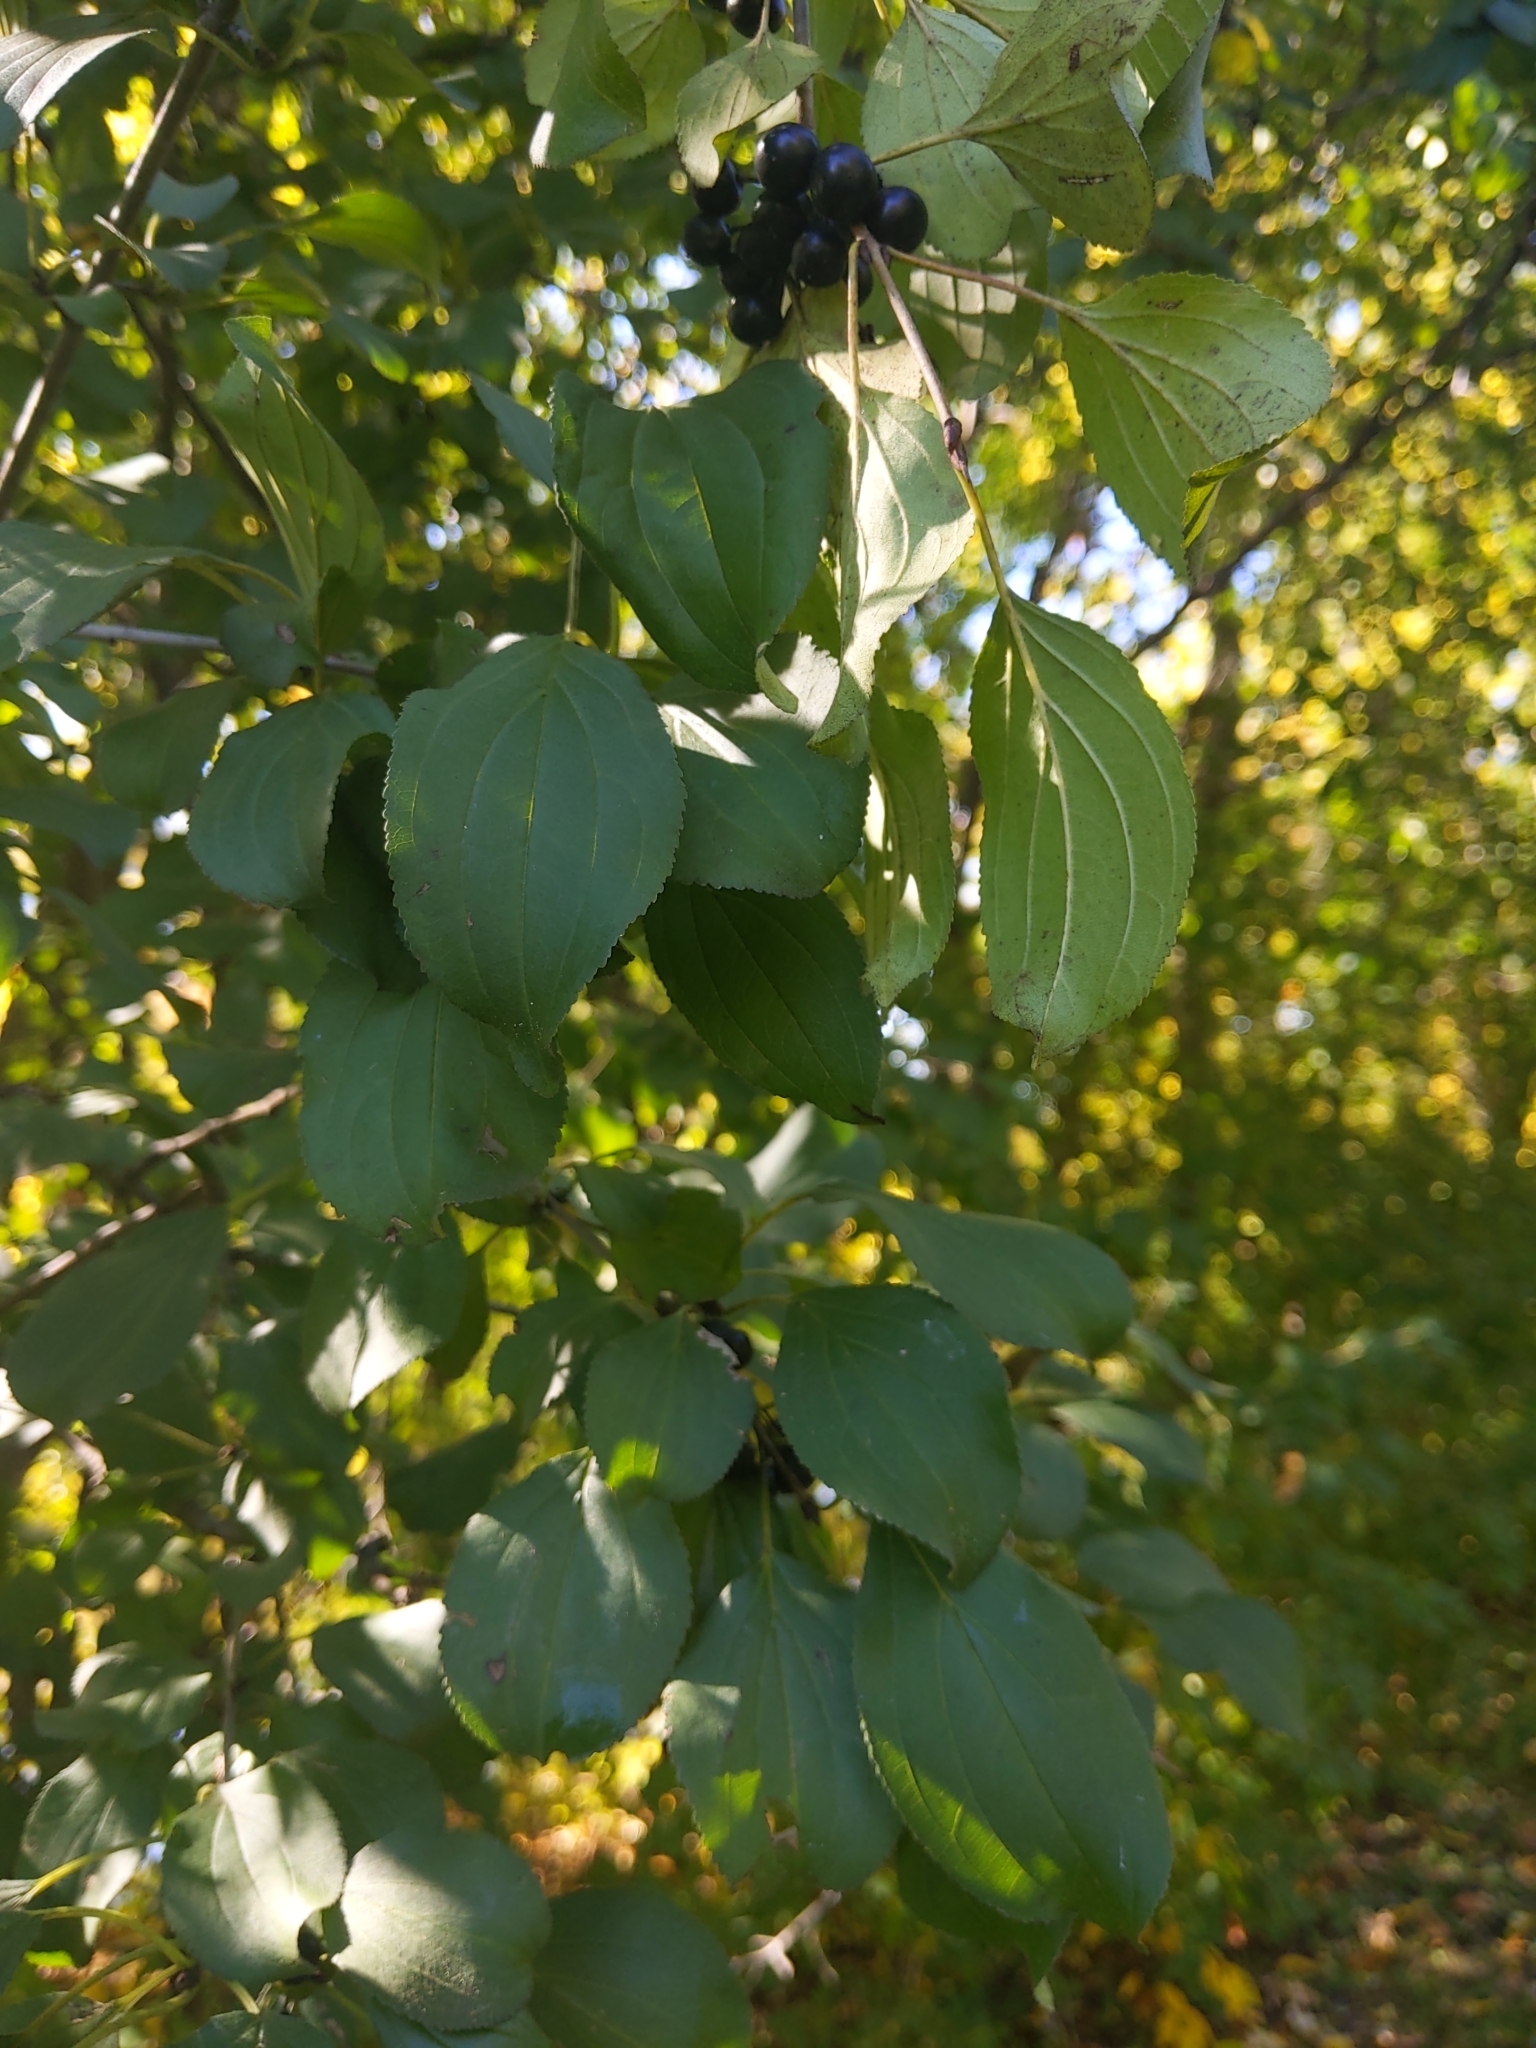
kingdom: Plantae
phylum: Tracheophyta
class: Magnoliopsida
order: Rosales
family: Rhamnaceae
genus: Rhamnus
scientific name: Rhamnus cathartica
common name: Common buckthorn
